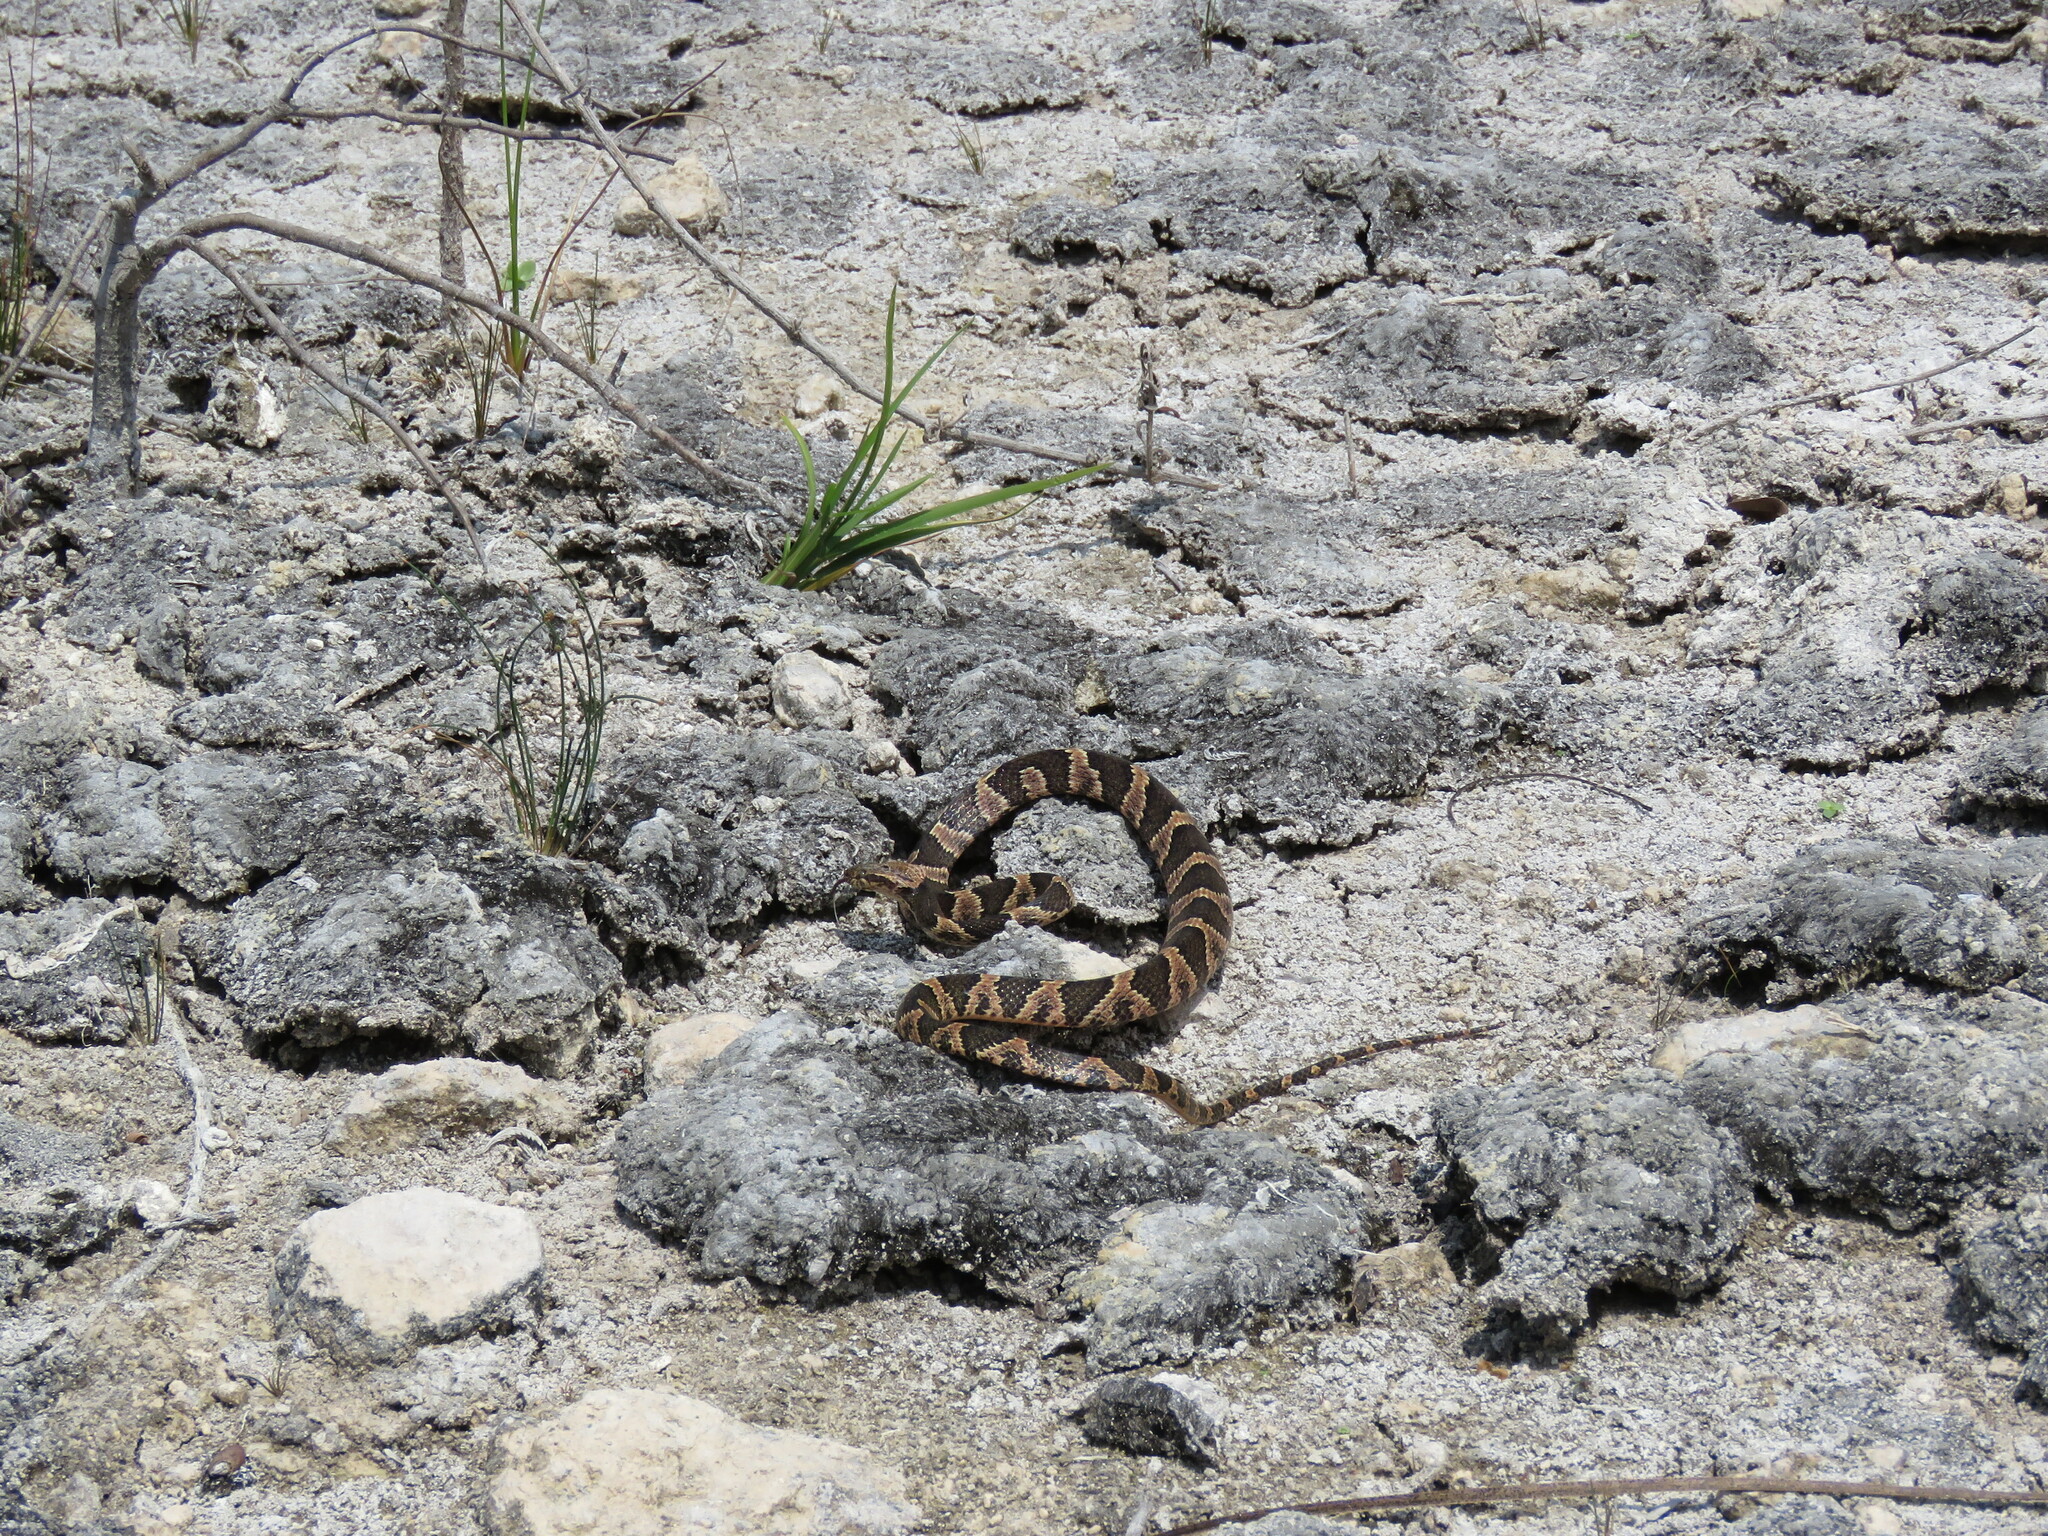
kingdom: Animalia
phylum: Chordata
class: Squamata
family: Colubridae
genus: Leptodeira
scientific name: Leptodeira frenata
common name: Rainforest cat-eyed snake
